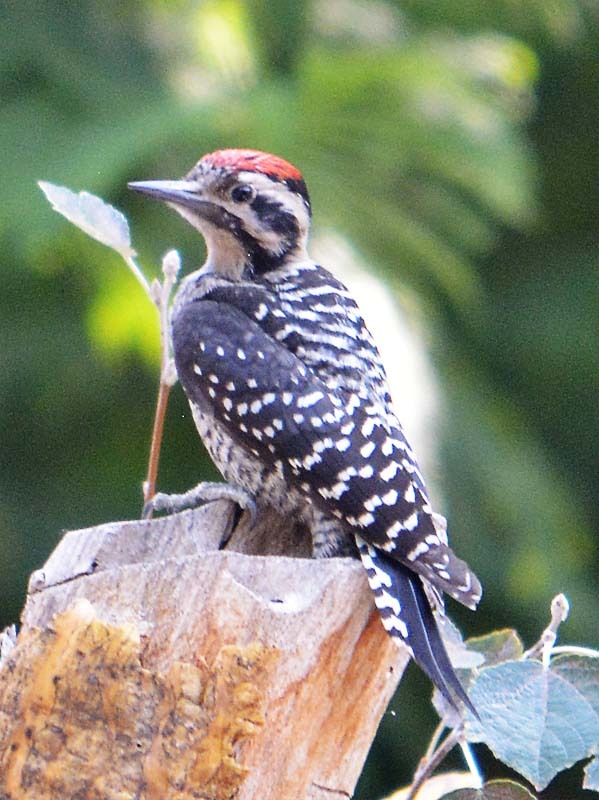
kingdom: Animalia
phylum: Chordata
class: Aves
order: Piciformes
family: Picidae
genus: Dryobates
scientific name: Dryobates scalaris
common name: Ladder-backed woodpecker
